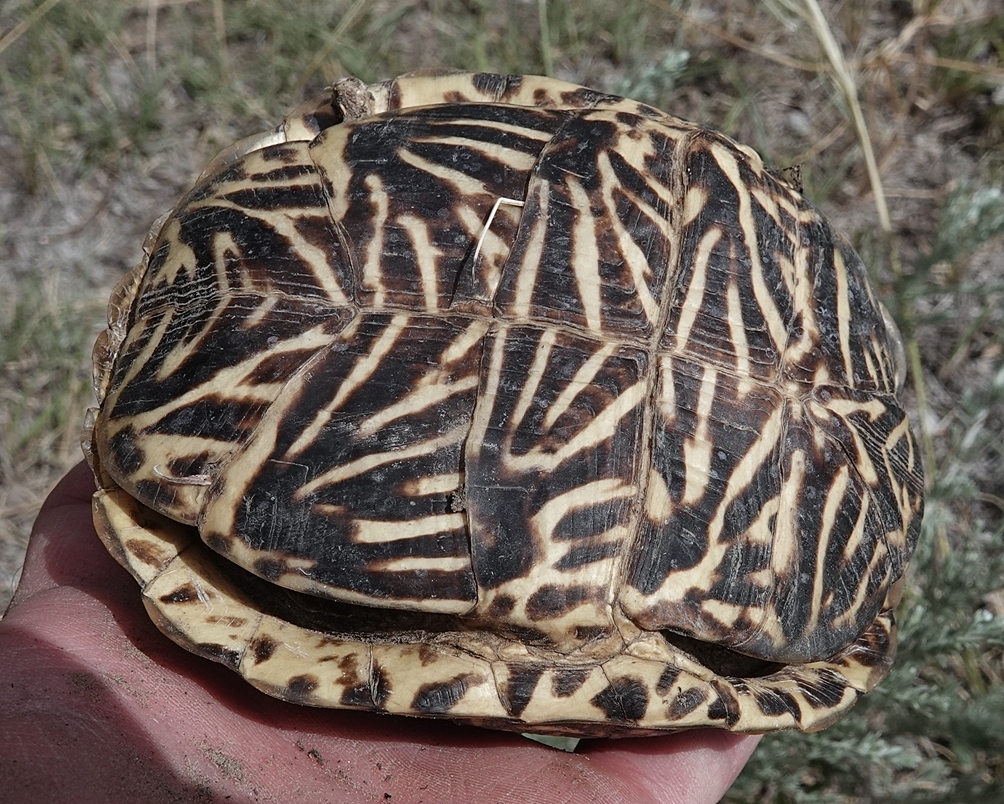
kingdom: Animalia
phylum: Chordata
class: Testudines
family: Emydidae
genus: Terrapene
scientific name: Terrapene ornata
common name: Western box turtle
